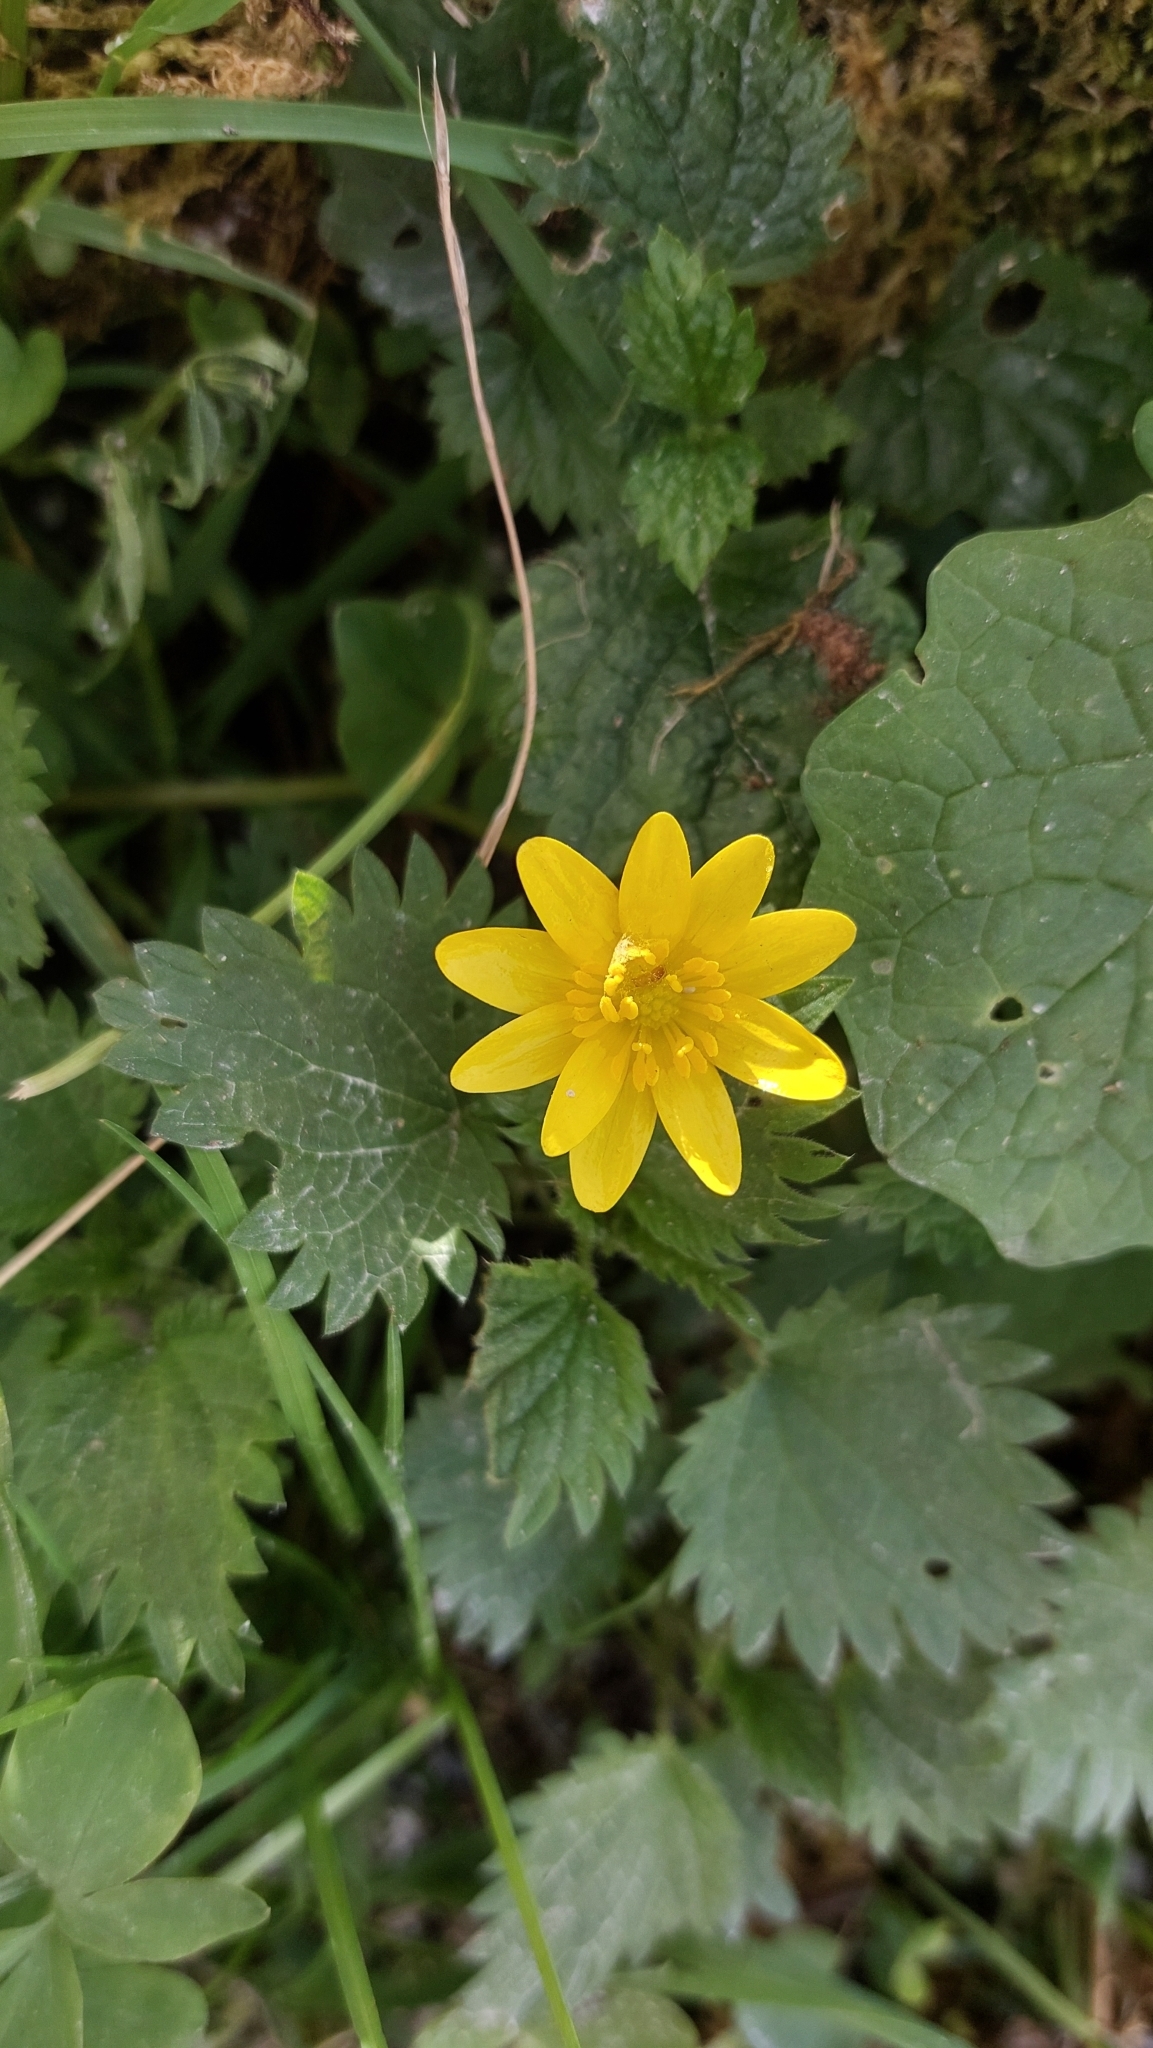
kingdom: Plantae
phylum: Tracheophyta
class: Magnoliopsida
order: Ranunculales
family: Ranunculaceae
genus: Ficaria
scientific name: Ficaria verna
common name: Lesser celandine
